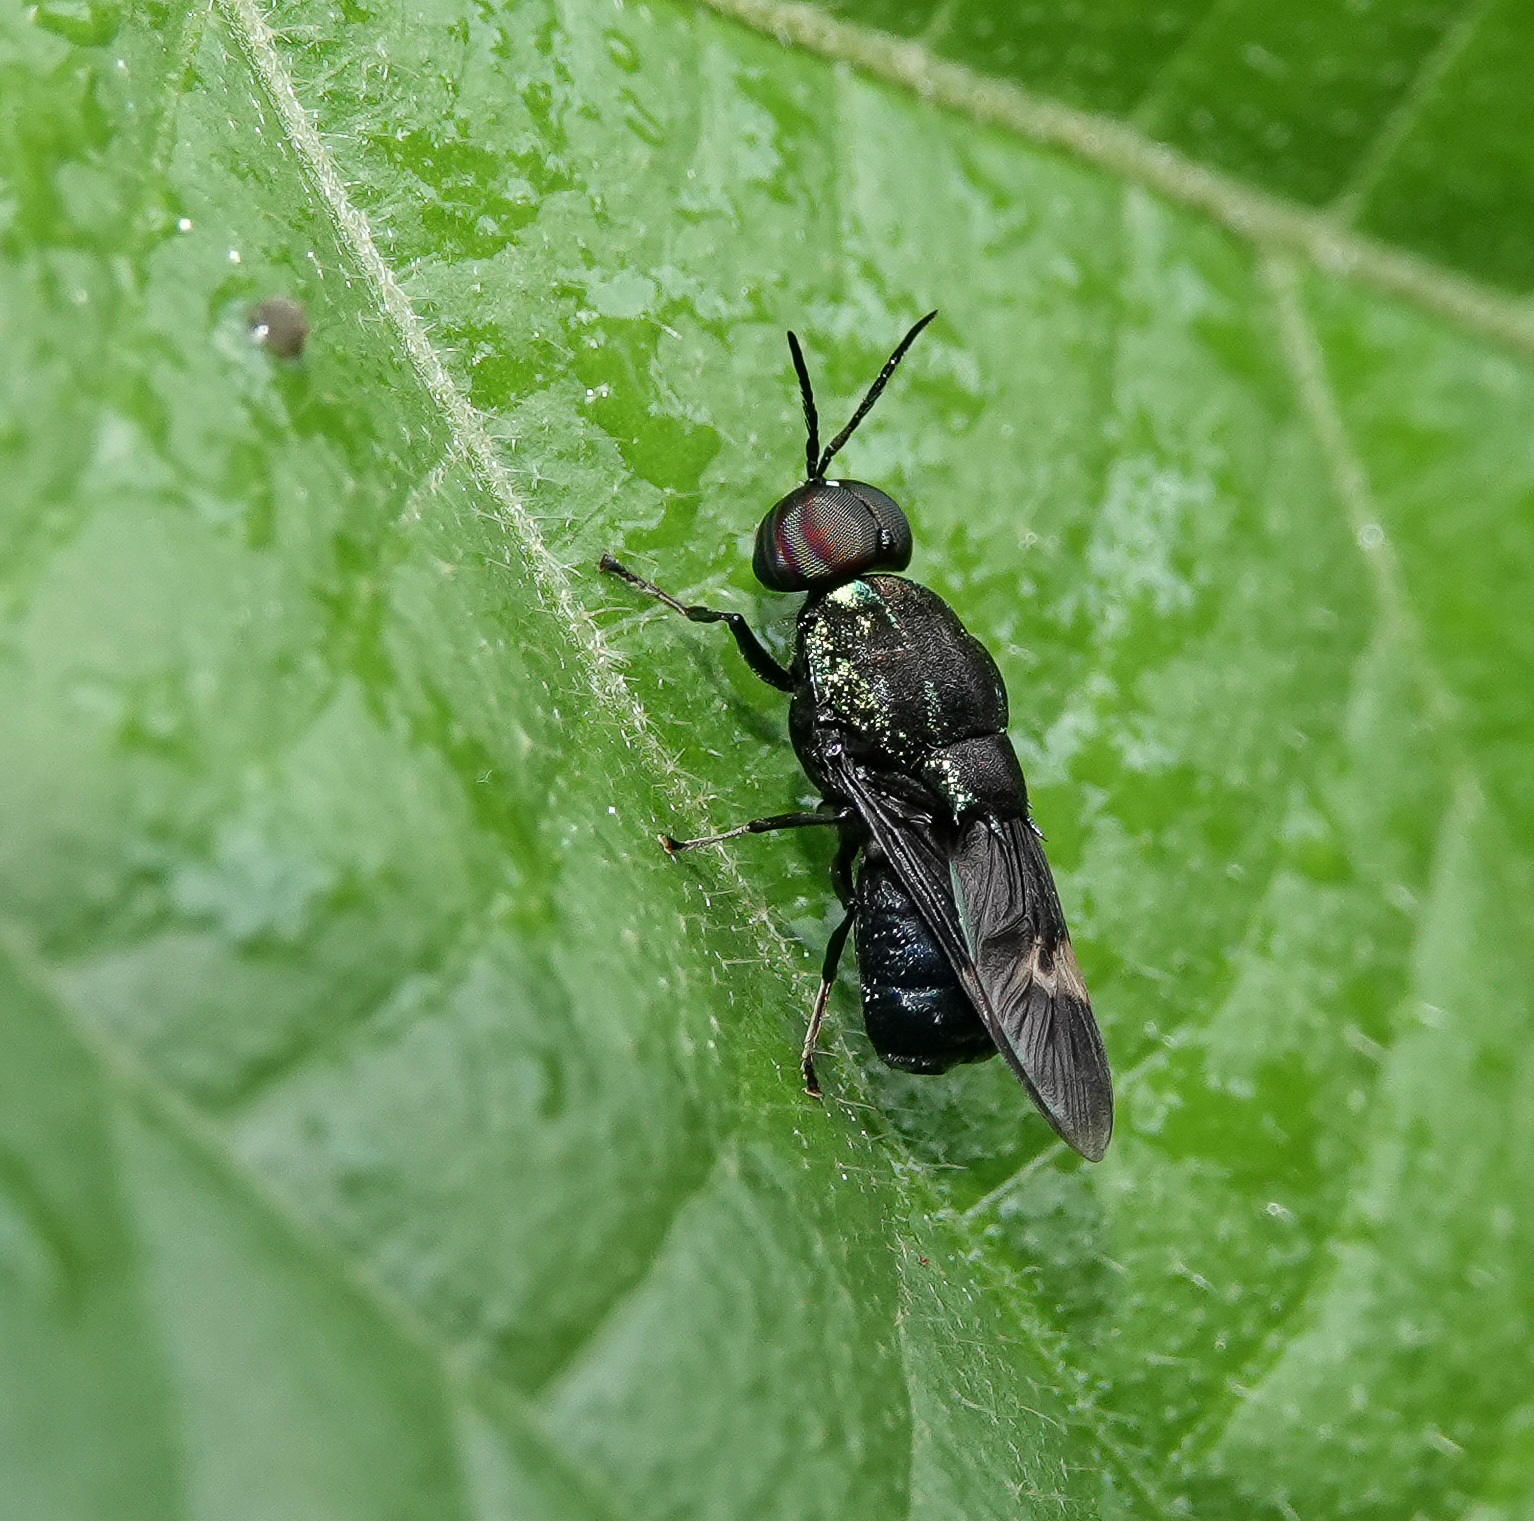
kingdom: Animalia
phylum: Arthropoda
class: Insecta
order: Diptera
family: Stratiomyidae
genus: Ptilocera
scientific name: Ptilocera continua
